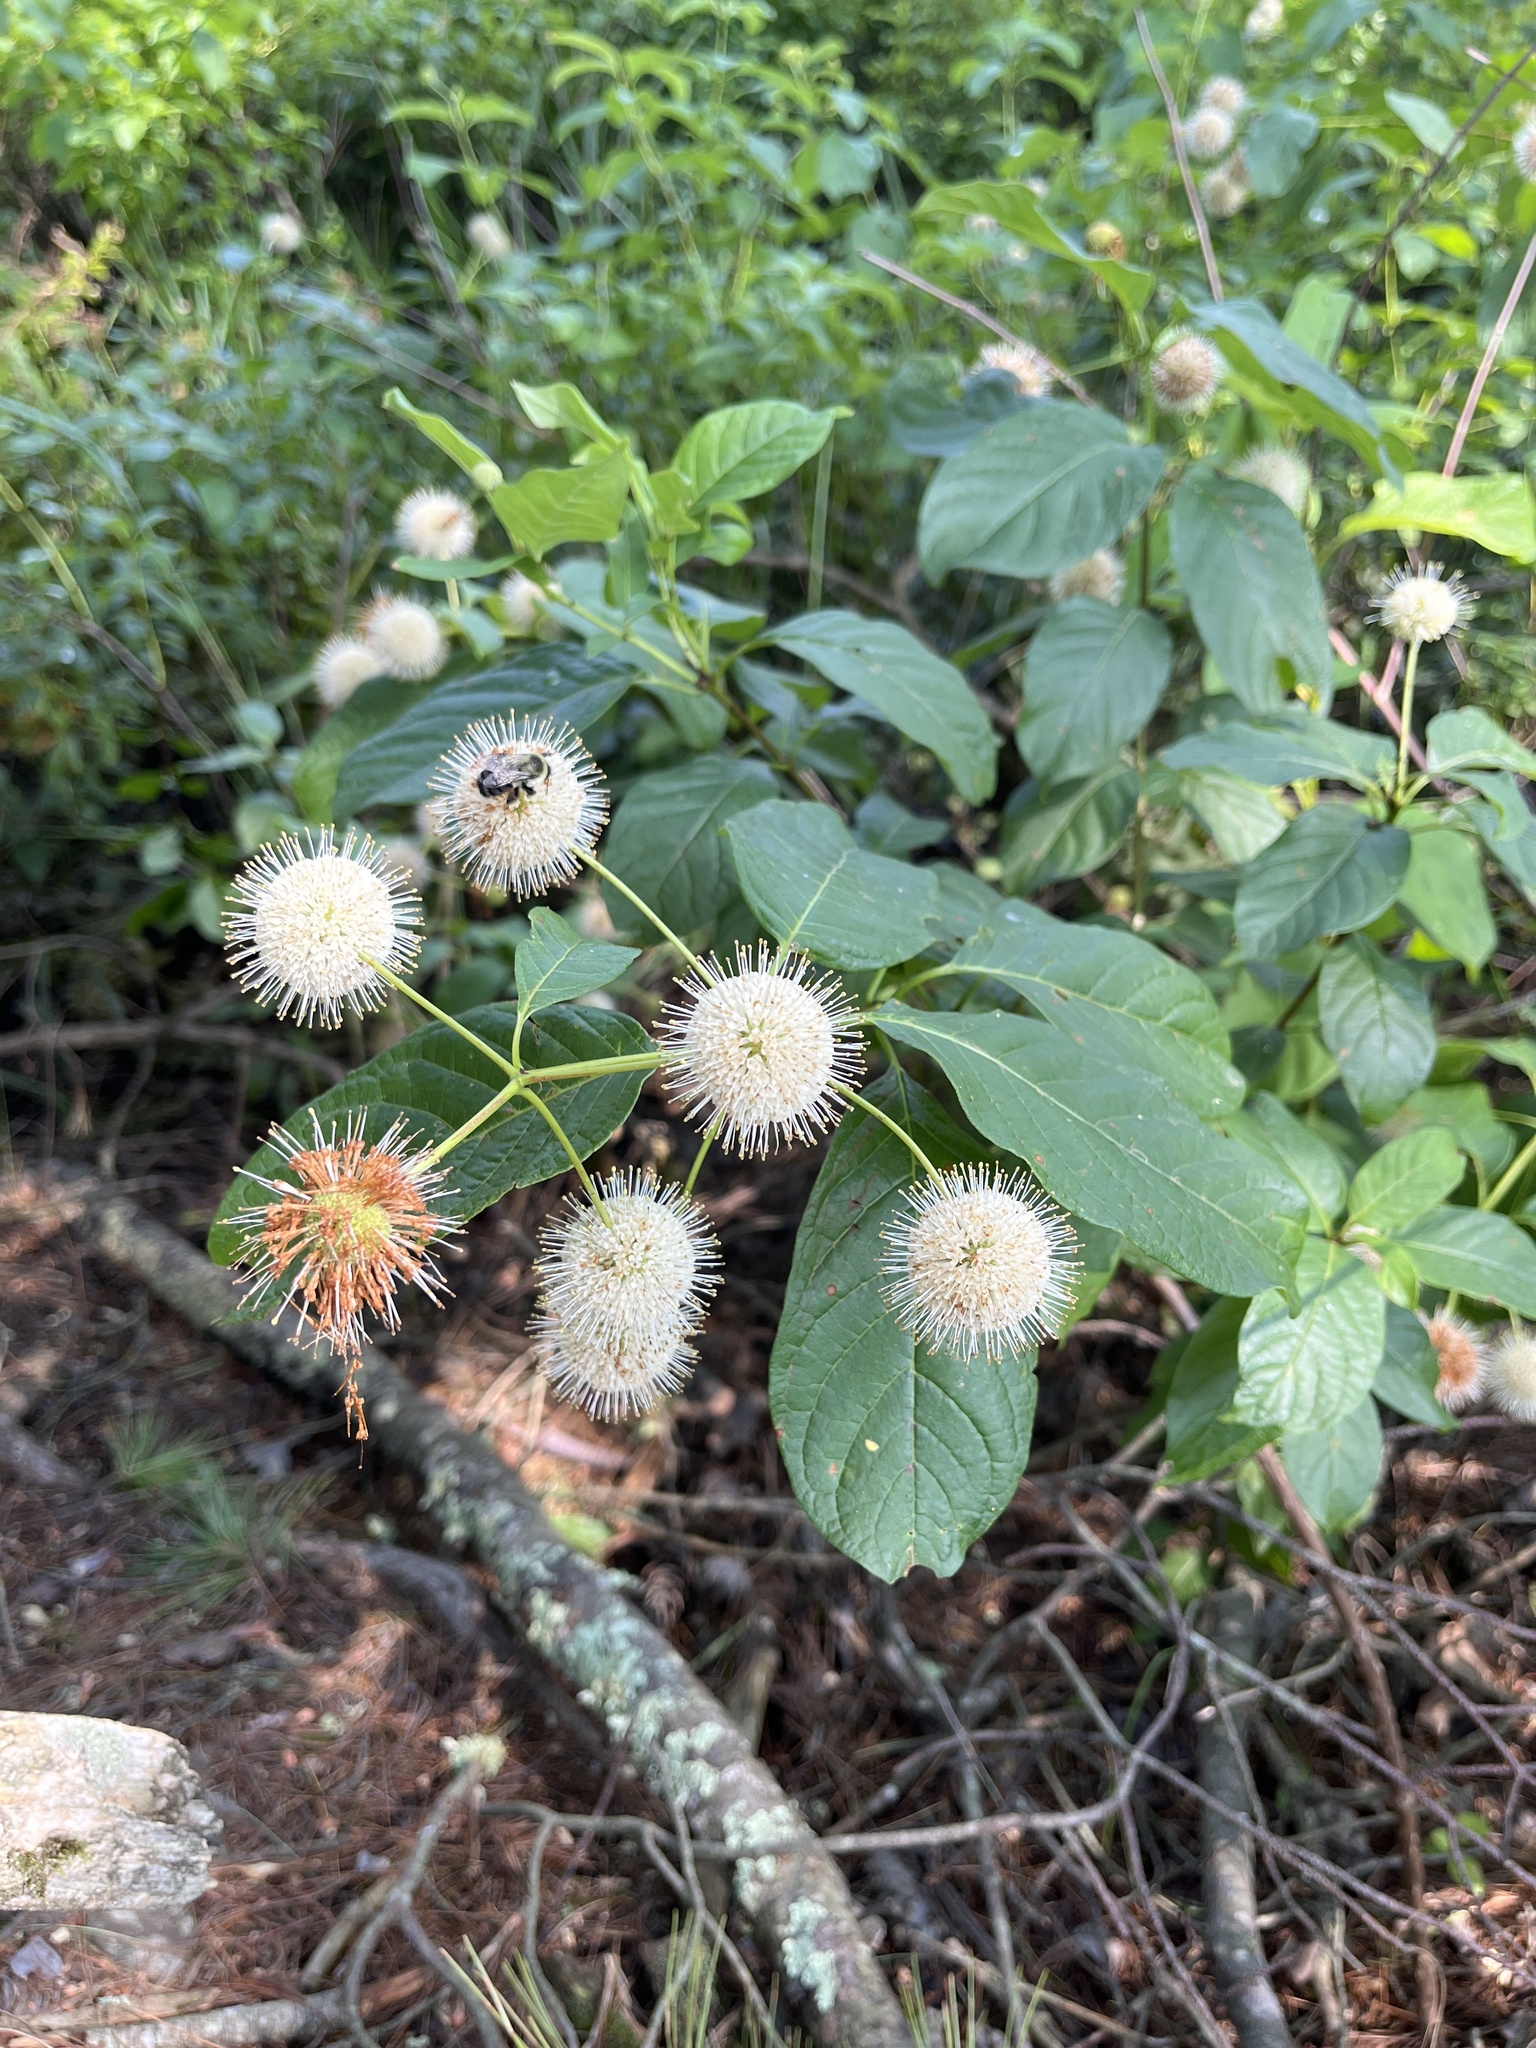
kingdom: Plantae
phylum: Tracheophyta
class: Magnoliopsida
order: Gentianales
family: Rubiaceae
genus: Cephalanthus
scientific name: Cephalanthus occidentalis
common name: Button-willow
